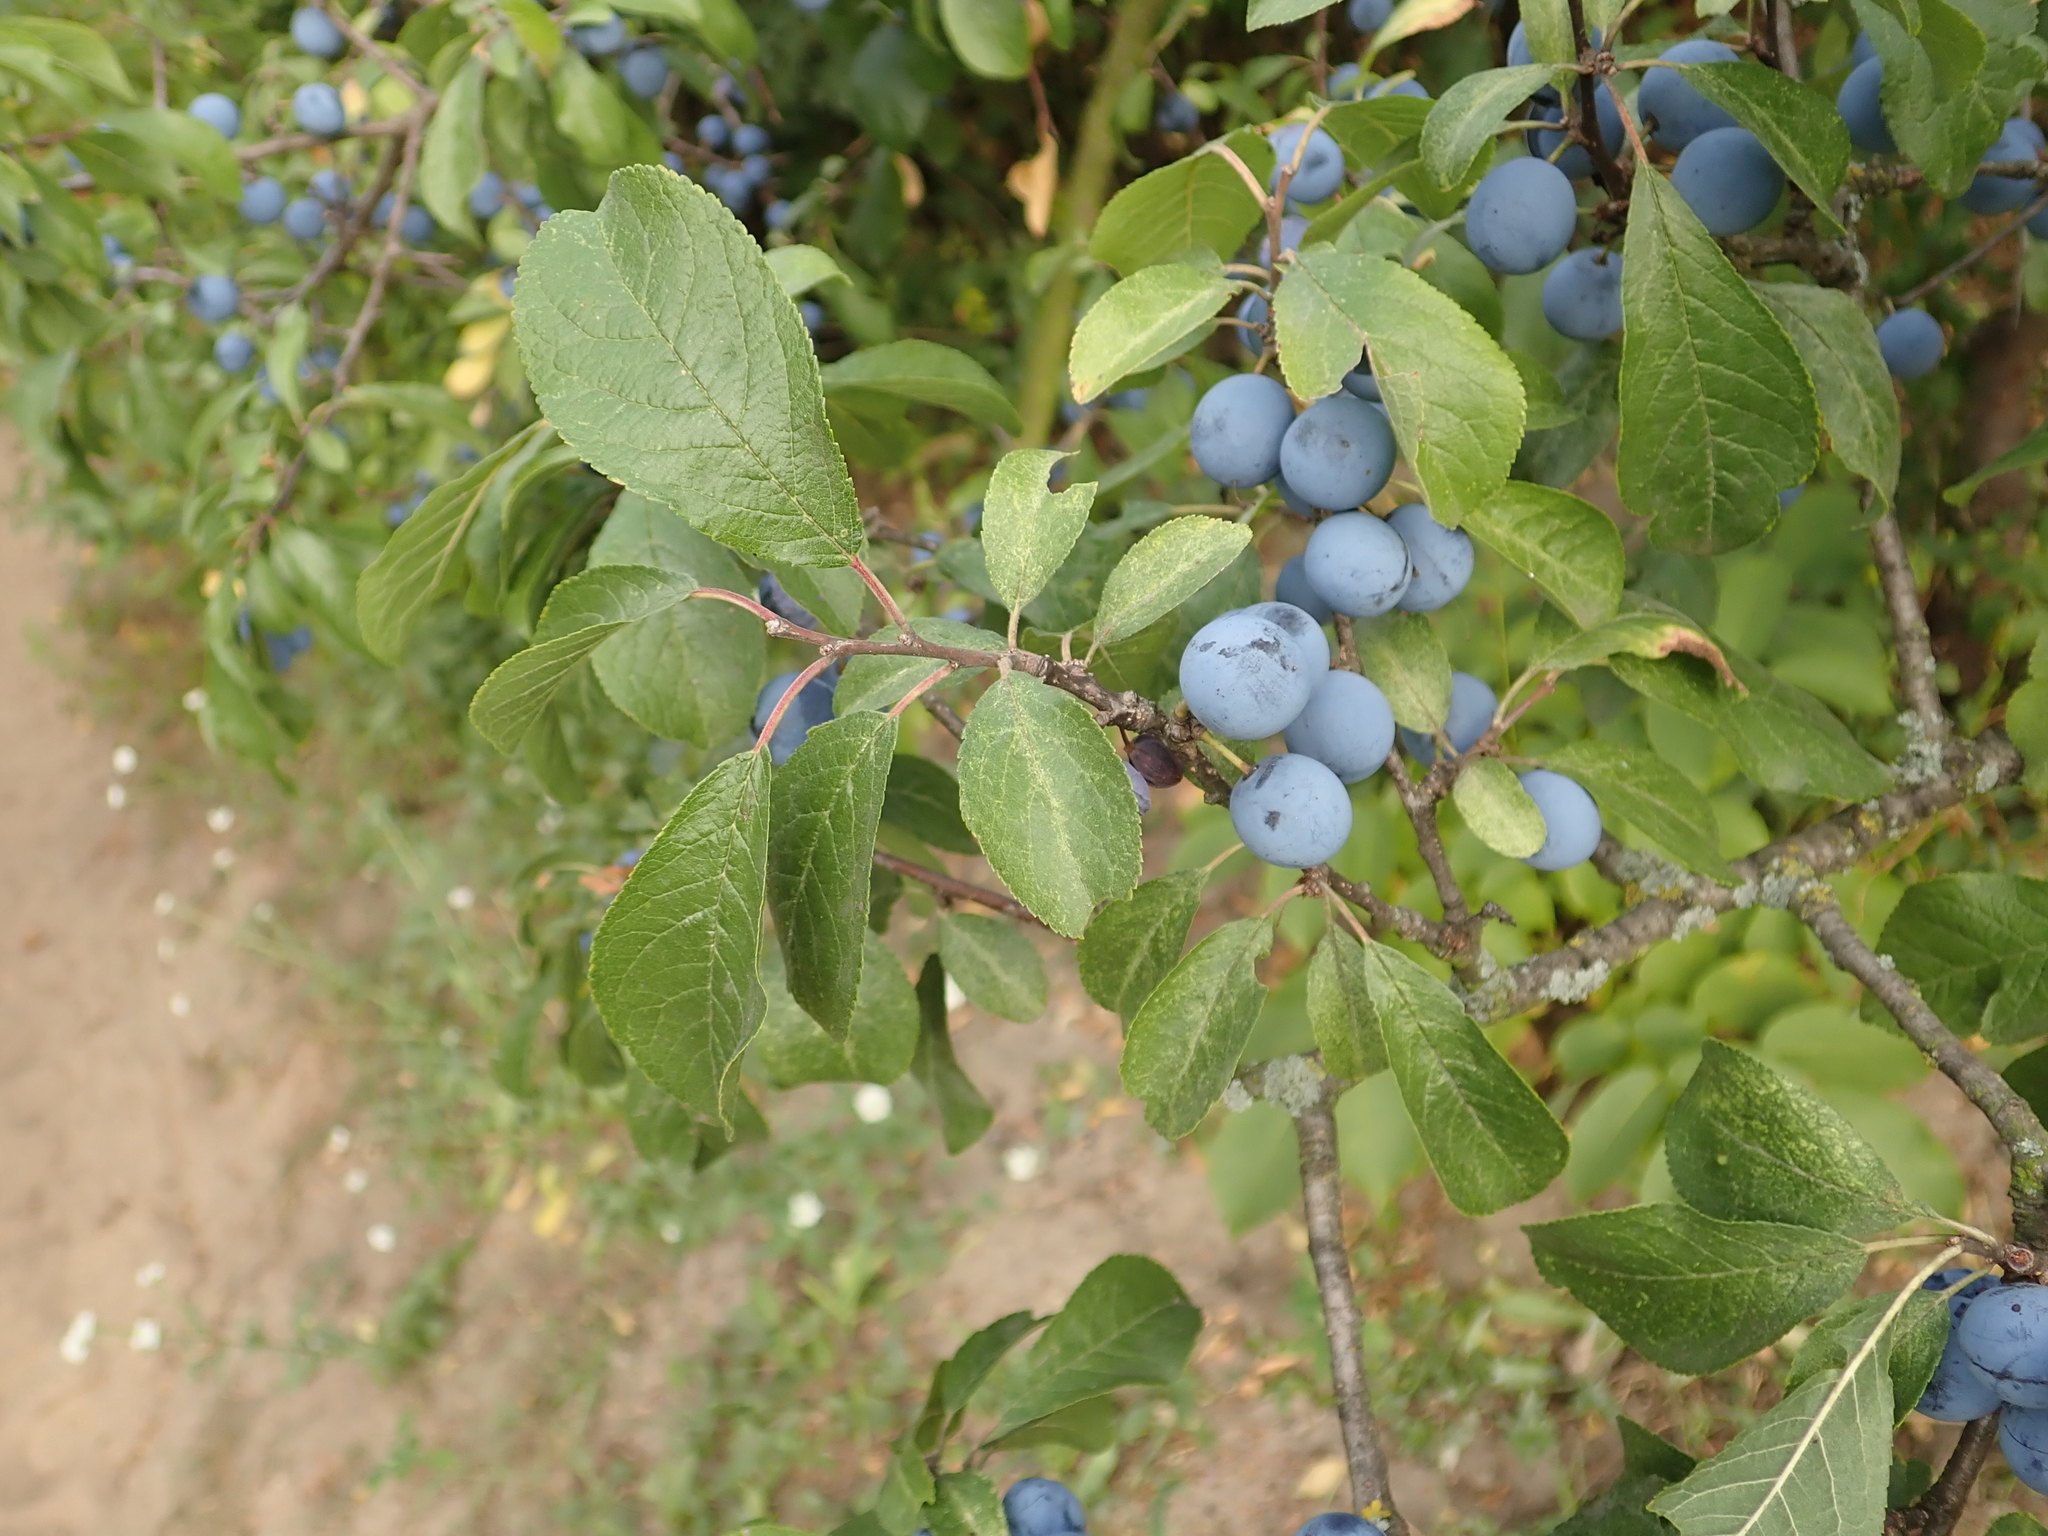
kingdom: Plantae
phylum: Tracheophyta
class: Magnoliopsida
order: Rosales
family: Rosaceae
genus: Prunus
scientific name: Prunus spinosa
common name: Blackthorn
